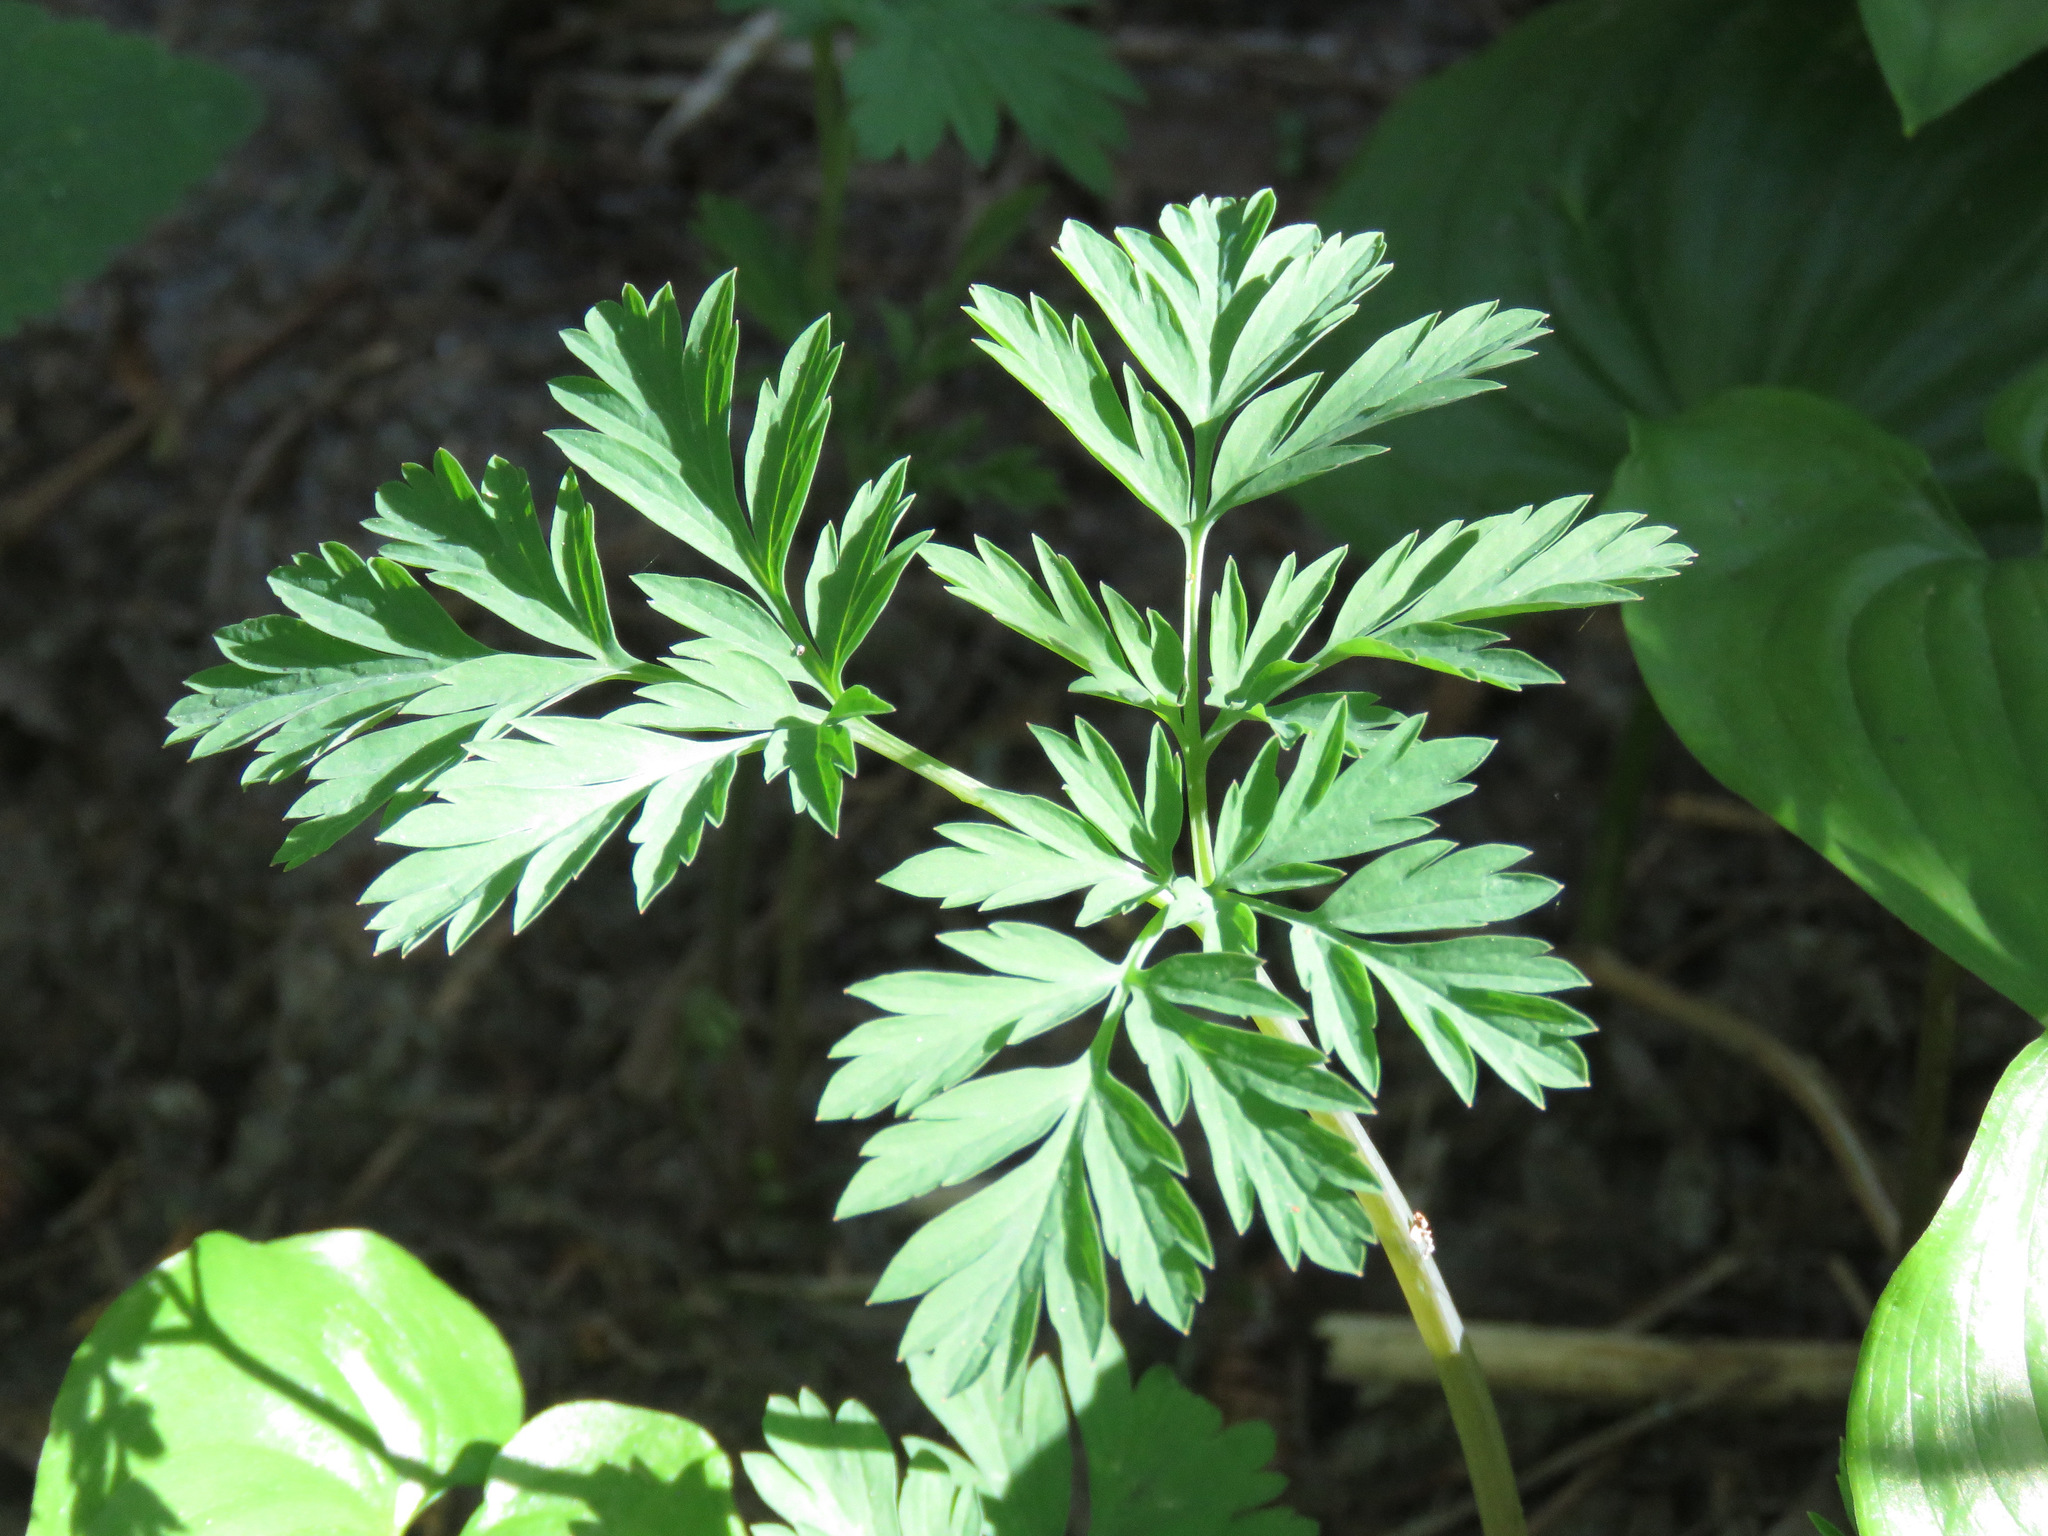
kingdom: Plantae
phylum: Tracheophyta
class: Magnoliopsida
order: Ranunculales
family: Papaveraceae
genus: Dicentra
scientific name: Dicentra formosa
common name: Bleeding-heart
